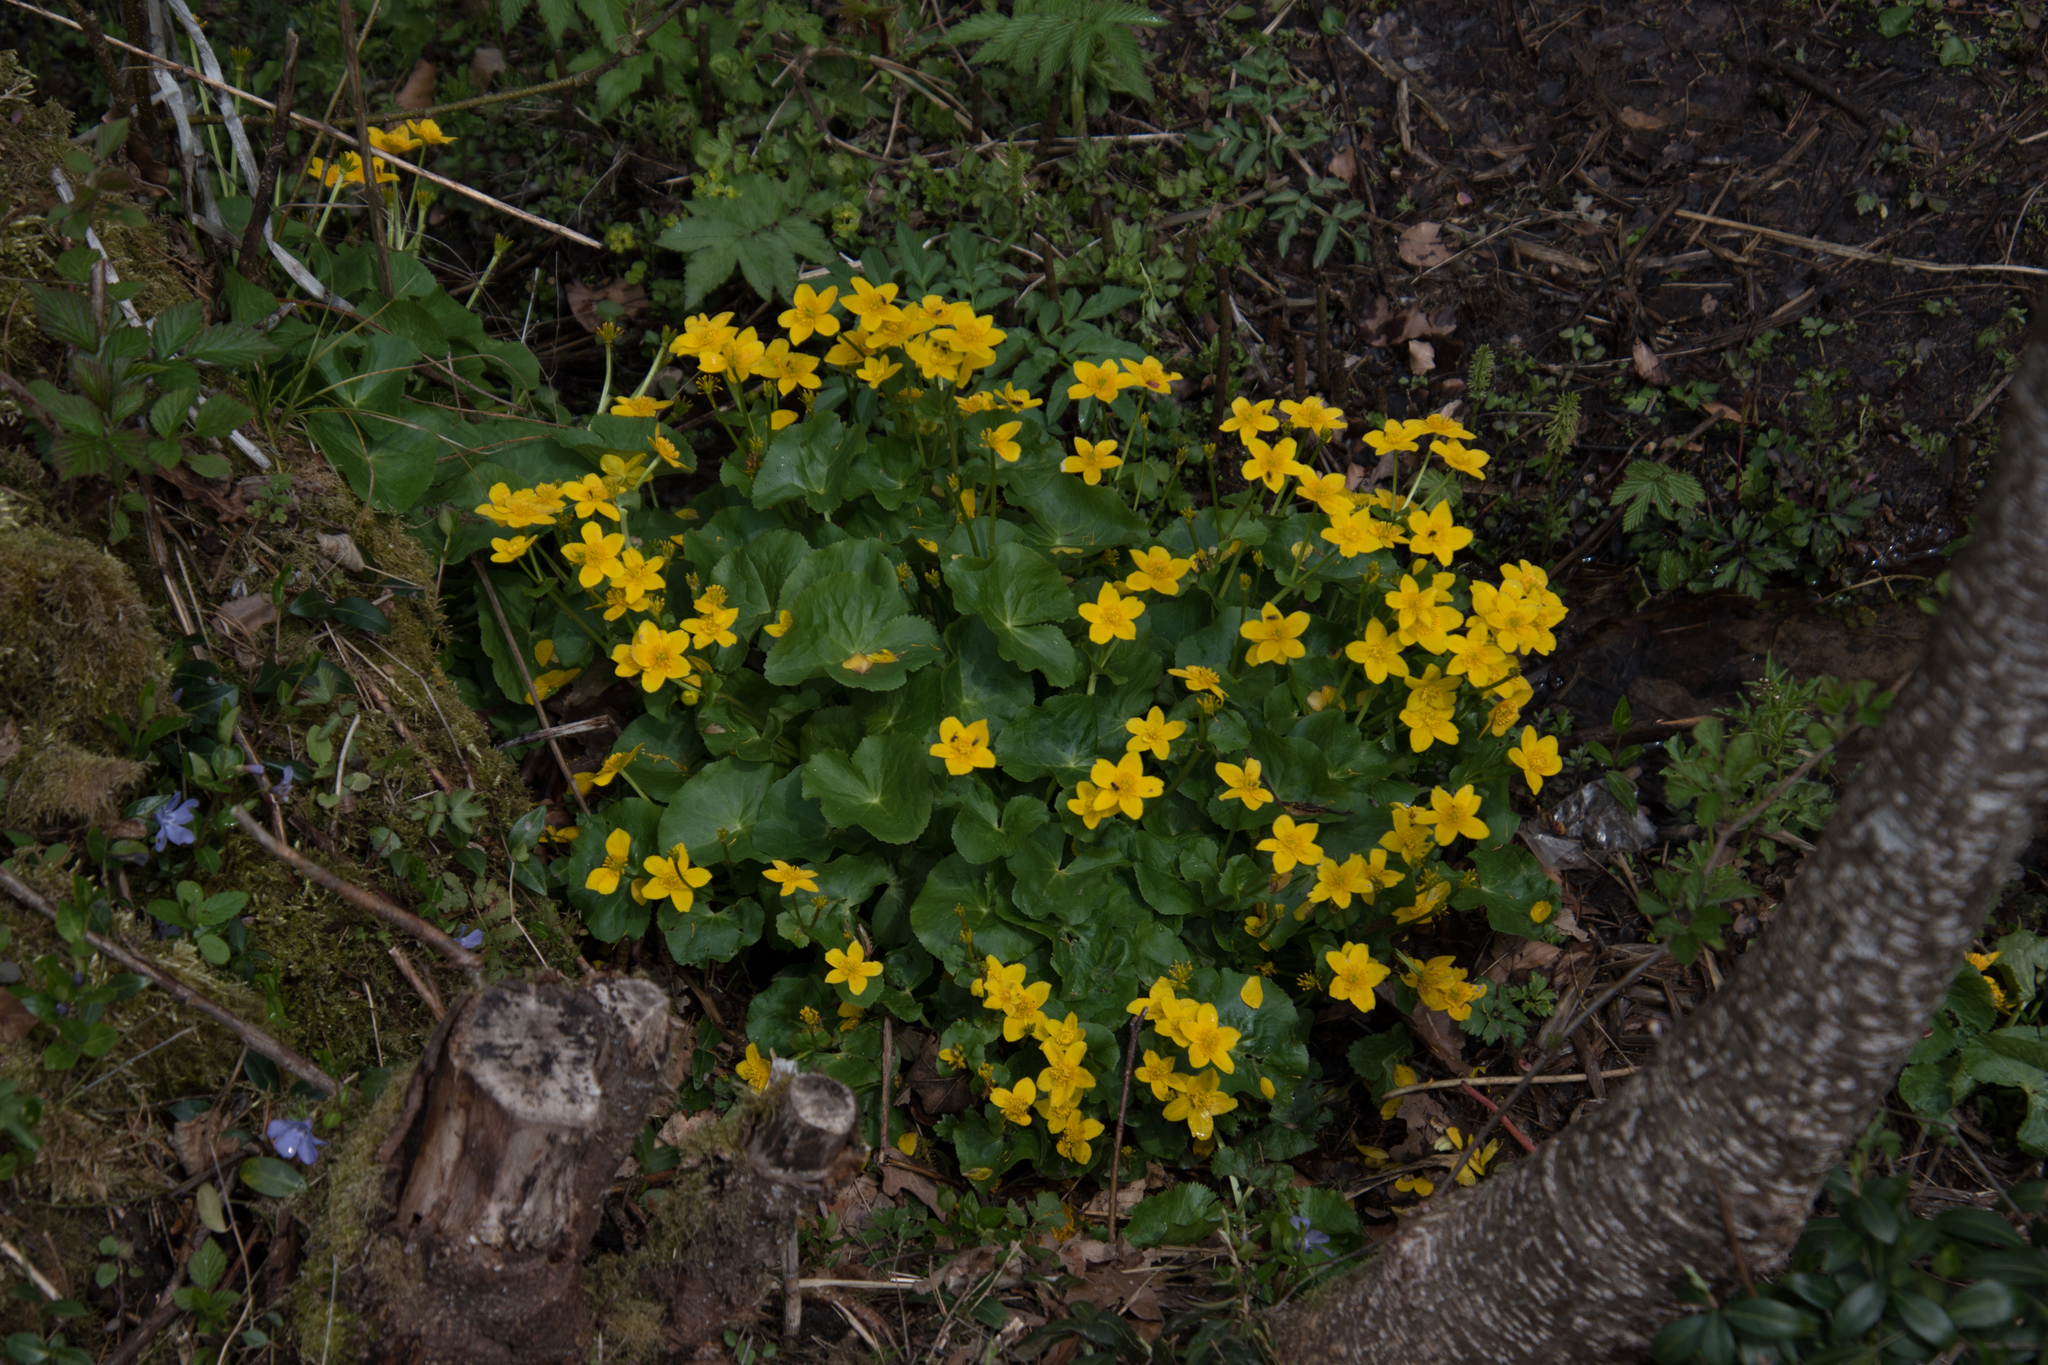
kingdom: Plantae
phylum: Tracheophyta
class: Magnoliopsida
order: Ranunculales
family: Ranunculaceae
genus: Caltha
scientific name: Caltha palustris
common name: Marsh marigold
